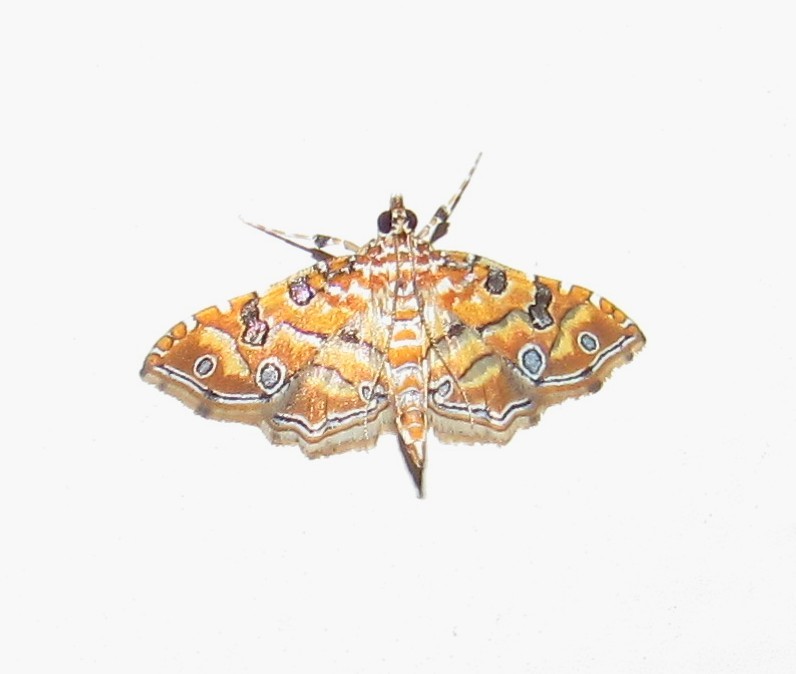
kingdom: Animalia
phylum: Arthropoda
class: Insecta
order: Lepidoptera
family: Crambidae
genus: Ommatospila
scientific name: Ommatospila narcaeusalis
